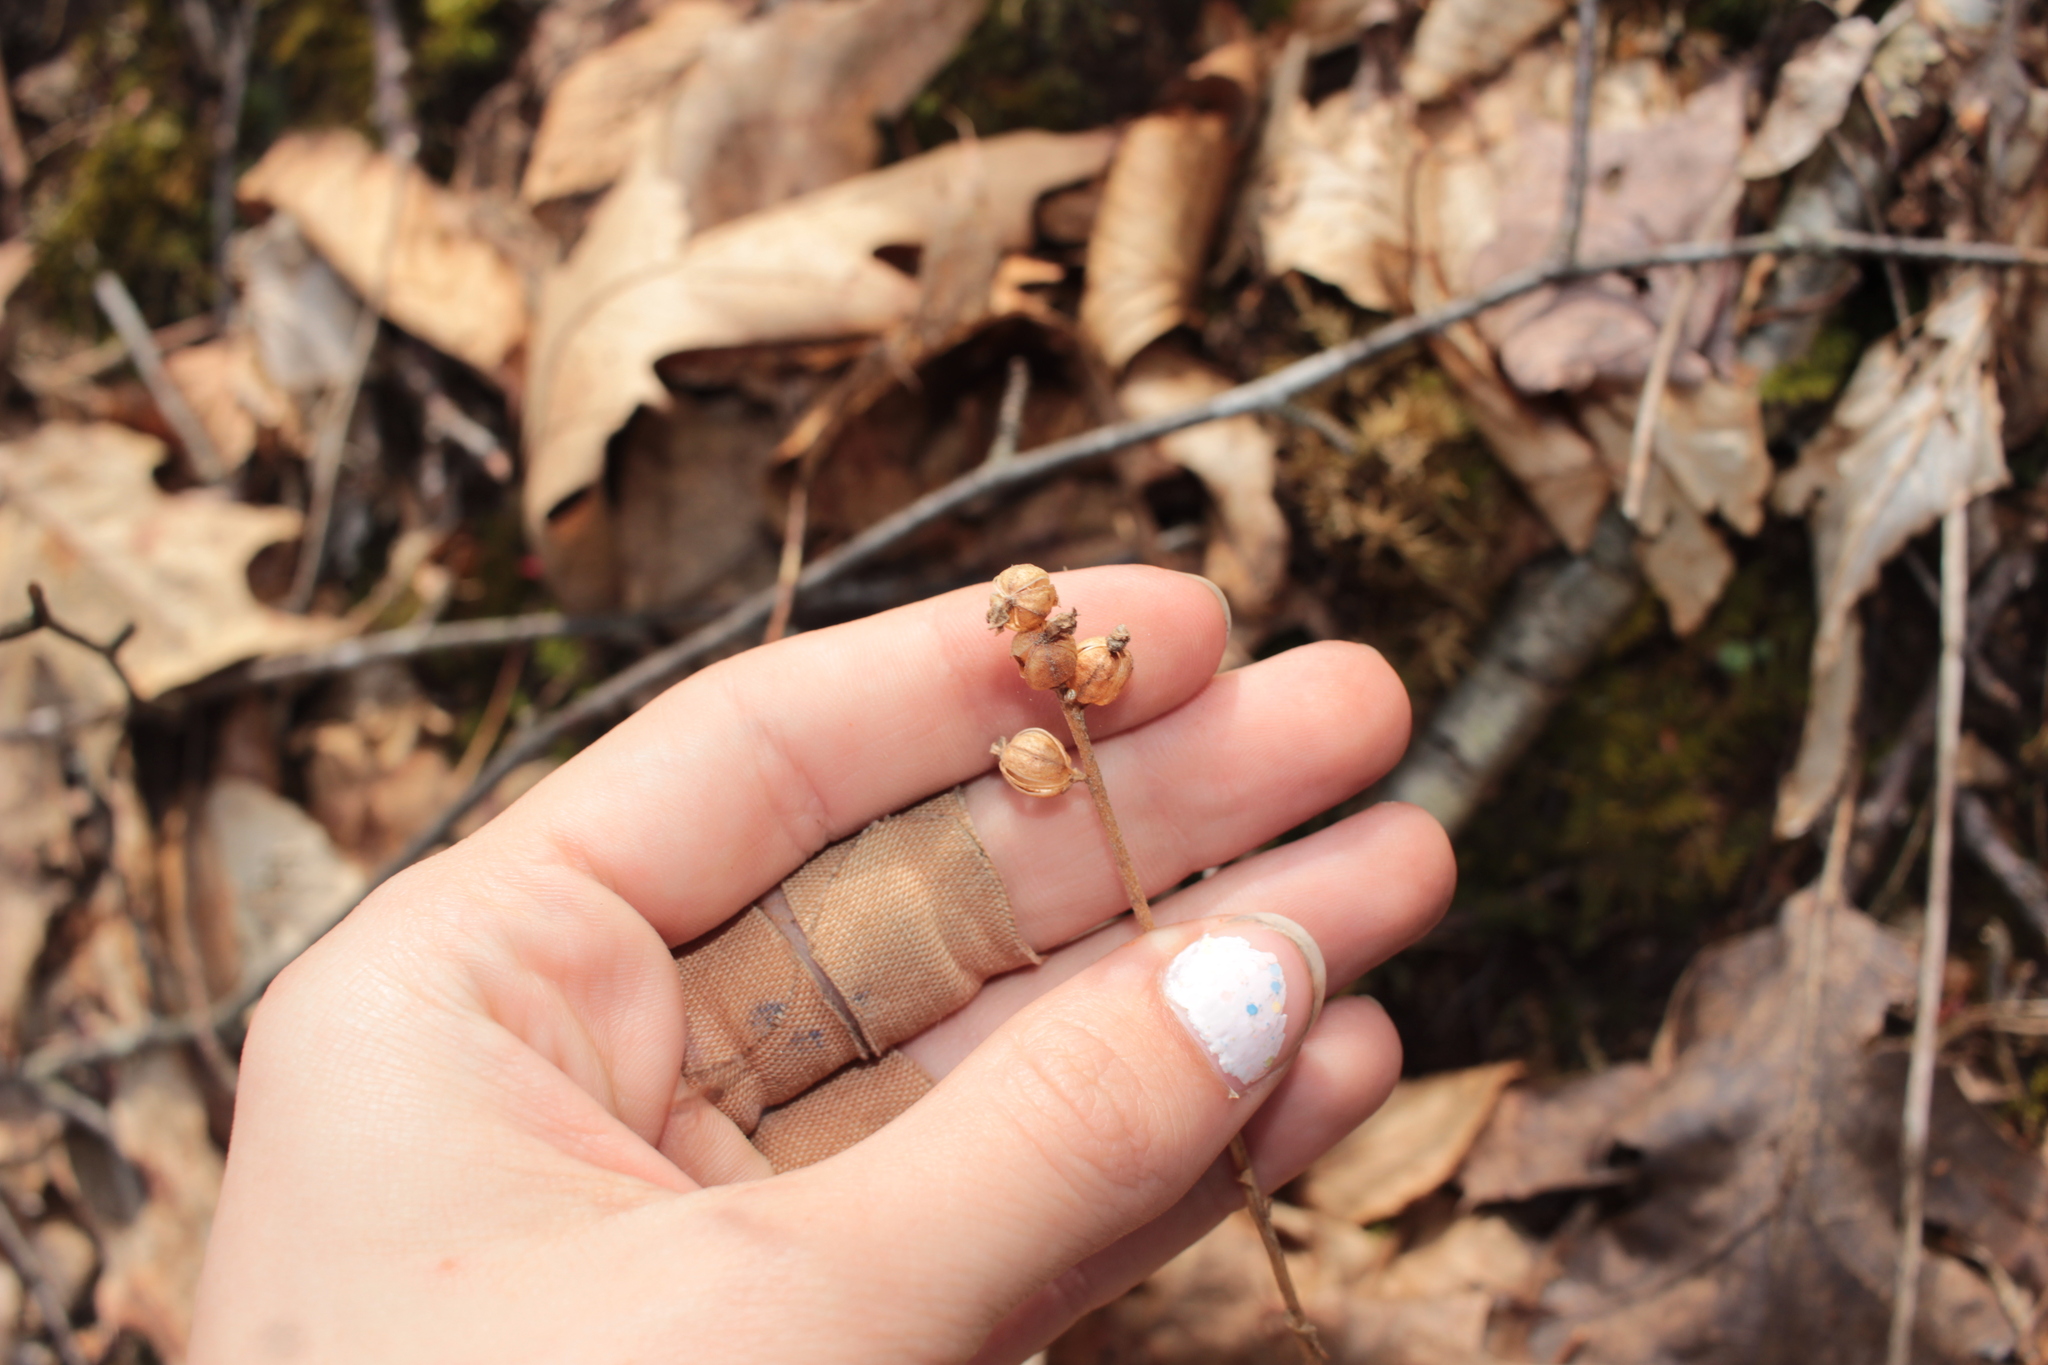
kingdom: Plantae
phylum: Tracheophyta
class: Liliopsida
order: Asparagales
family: Orchidaceae
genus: Goodyera
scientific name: Goodyera pubescens
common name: Downy rattlesnake-plantain
